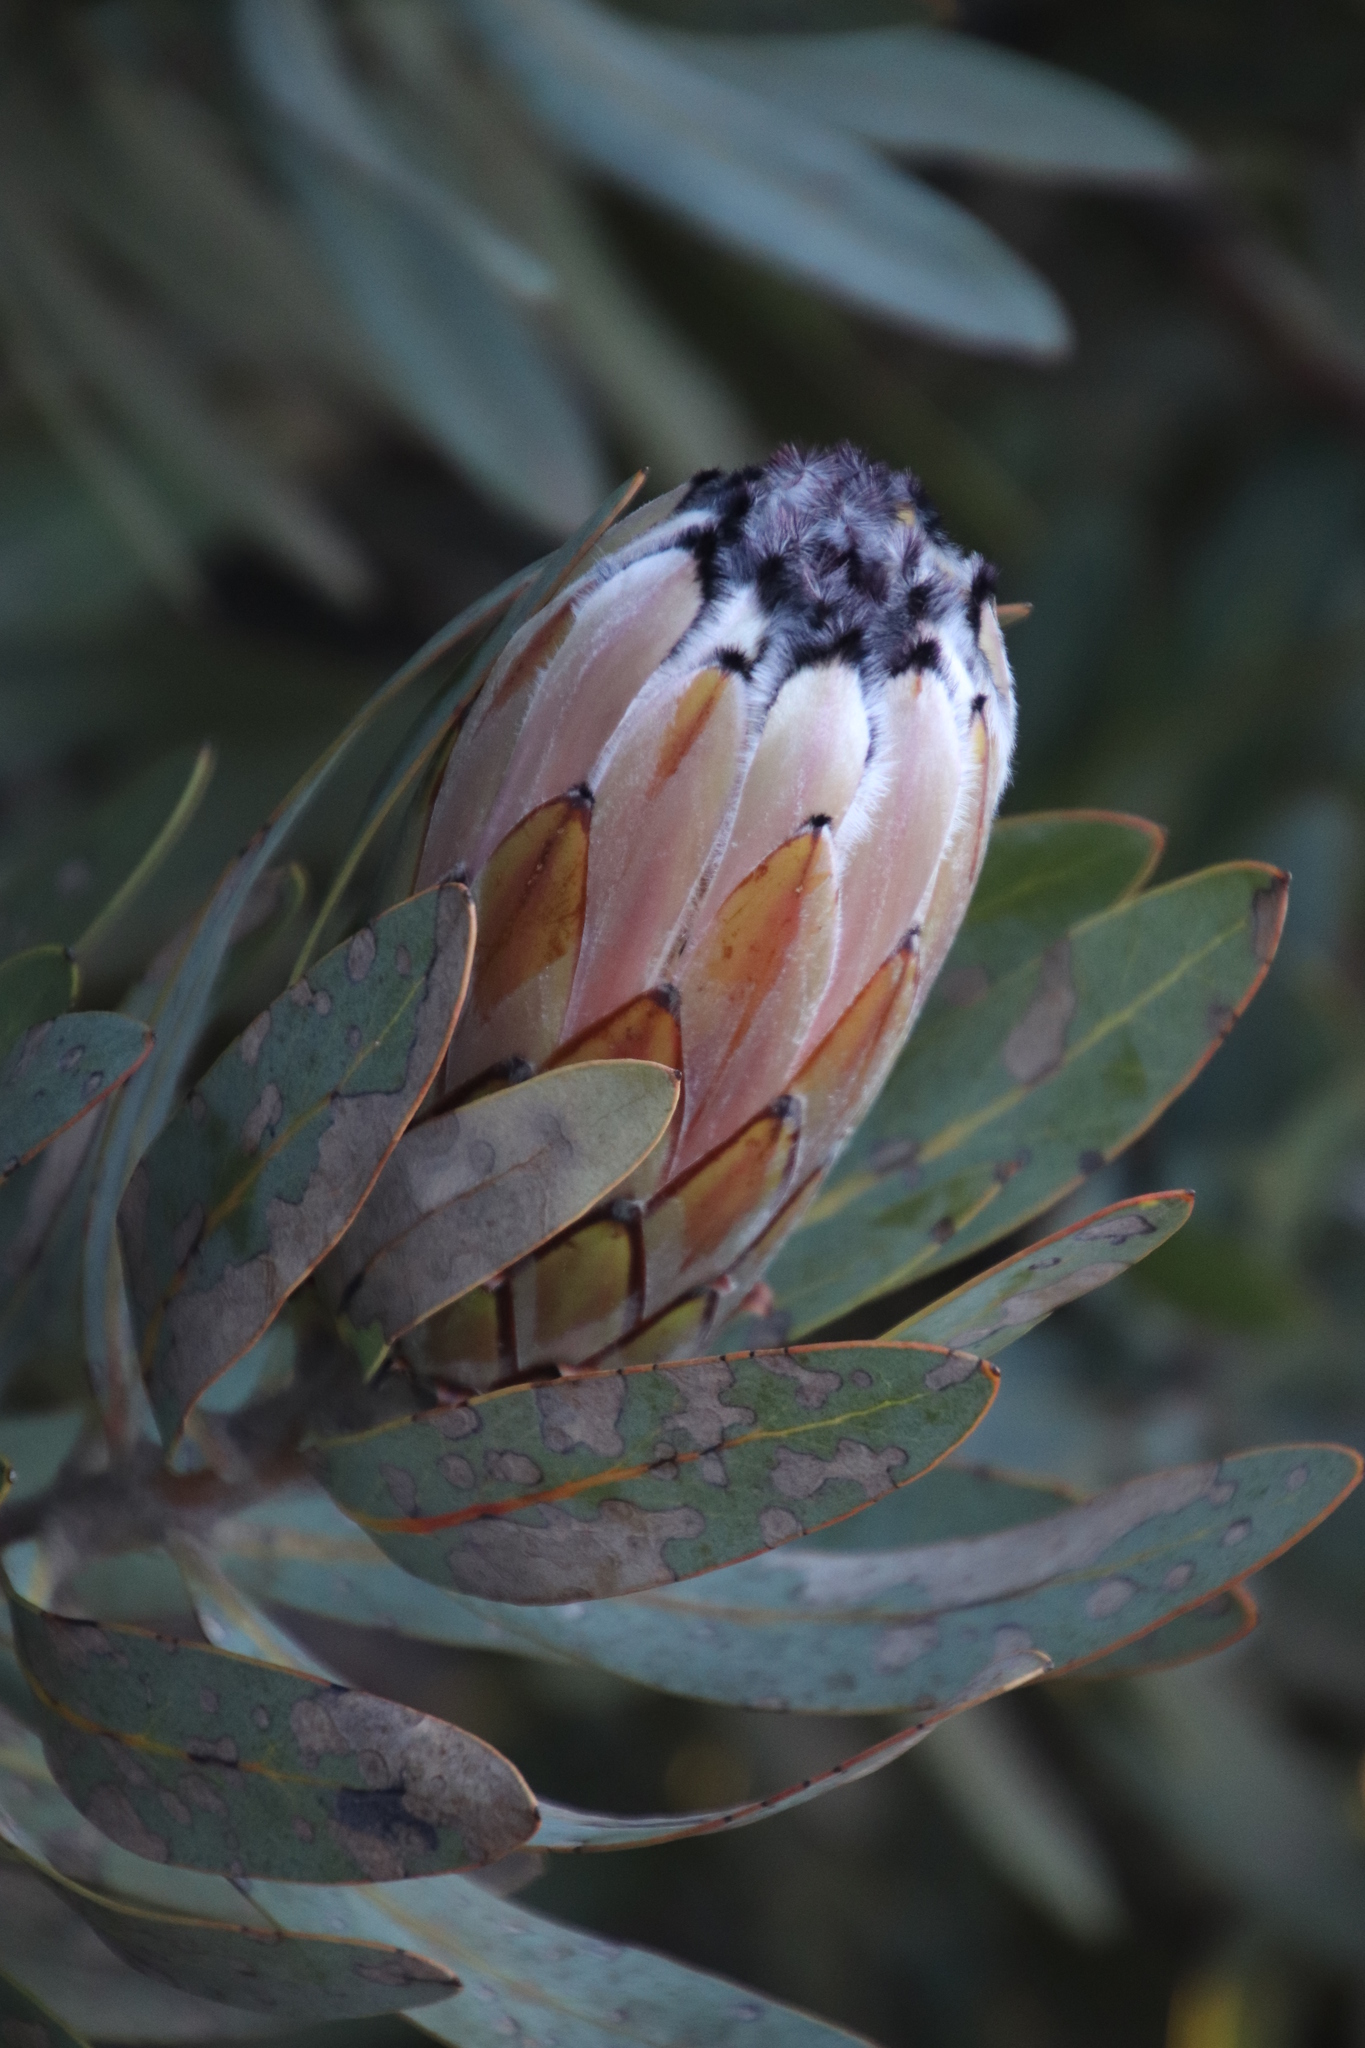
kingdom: Plantae
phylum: Tracheophyta
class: Magnoliopsida
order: Proteales
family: Proteaceae
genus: Protea
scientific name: Protea laurifolia
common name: Grey-leaf sugarbsh
